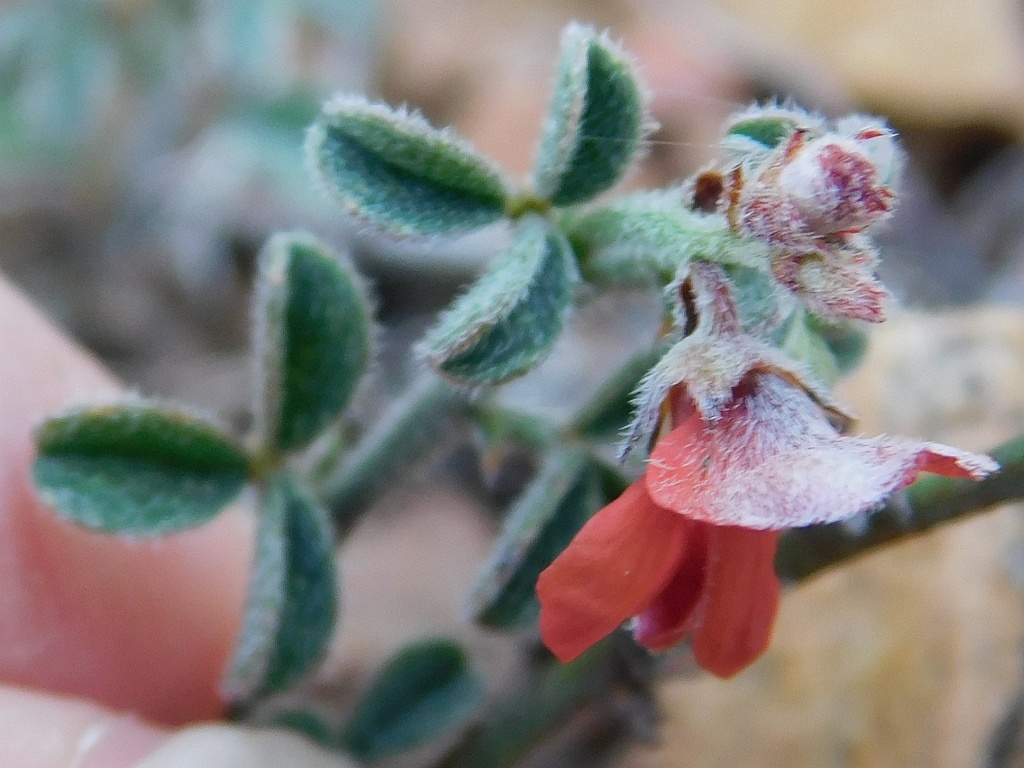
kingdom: Plantae
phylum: Tracheophyta
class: Magnoliopsida
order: Fabales
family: Fabaceae
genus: Indigofera
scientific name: Indigofera priorii
